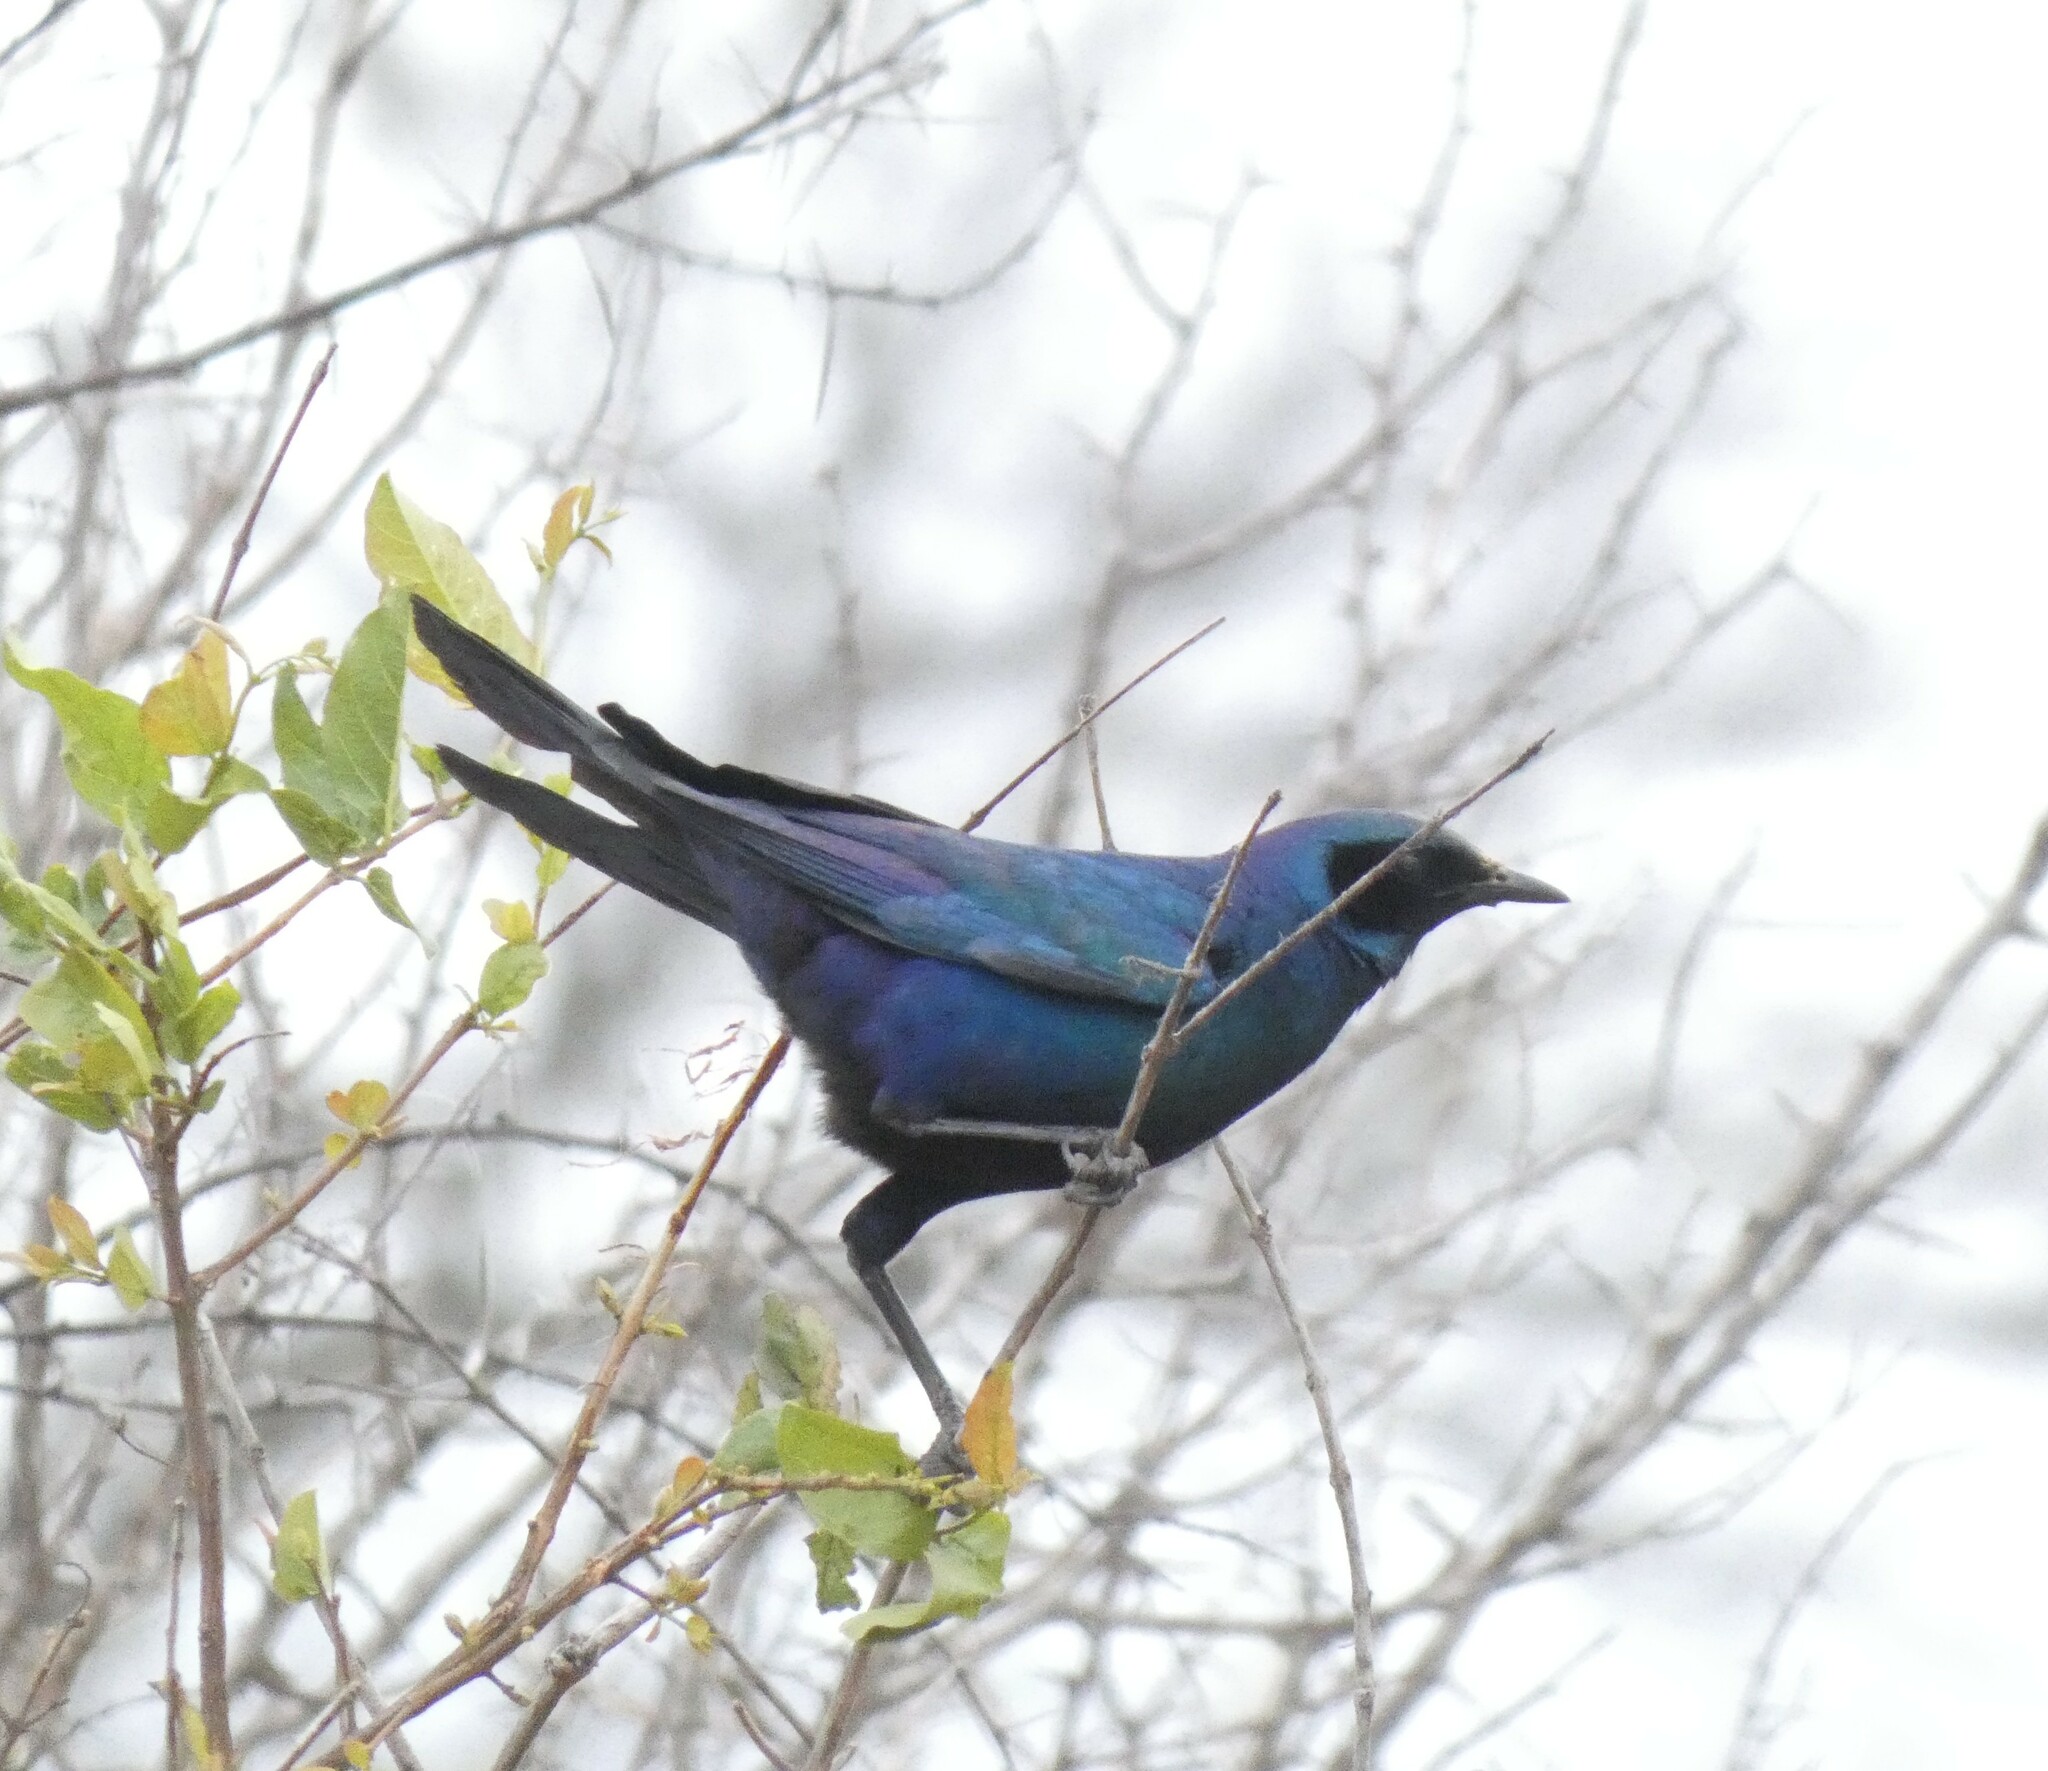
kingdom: Animalia
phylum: Chordata
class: Aves
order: Passeriformes
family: Sturnidae
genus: Lamprotornis
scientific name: Lamprotornis australis
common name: Burchell's starling
